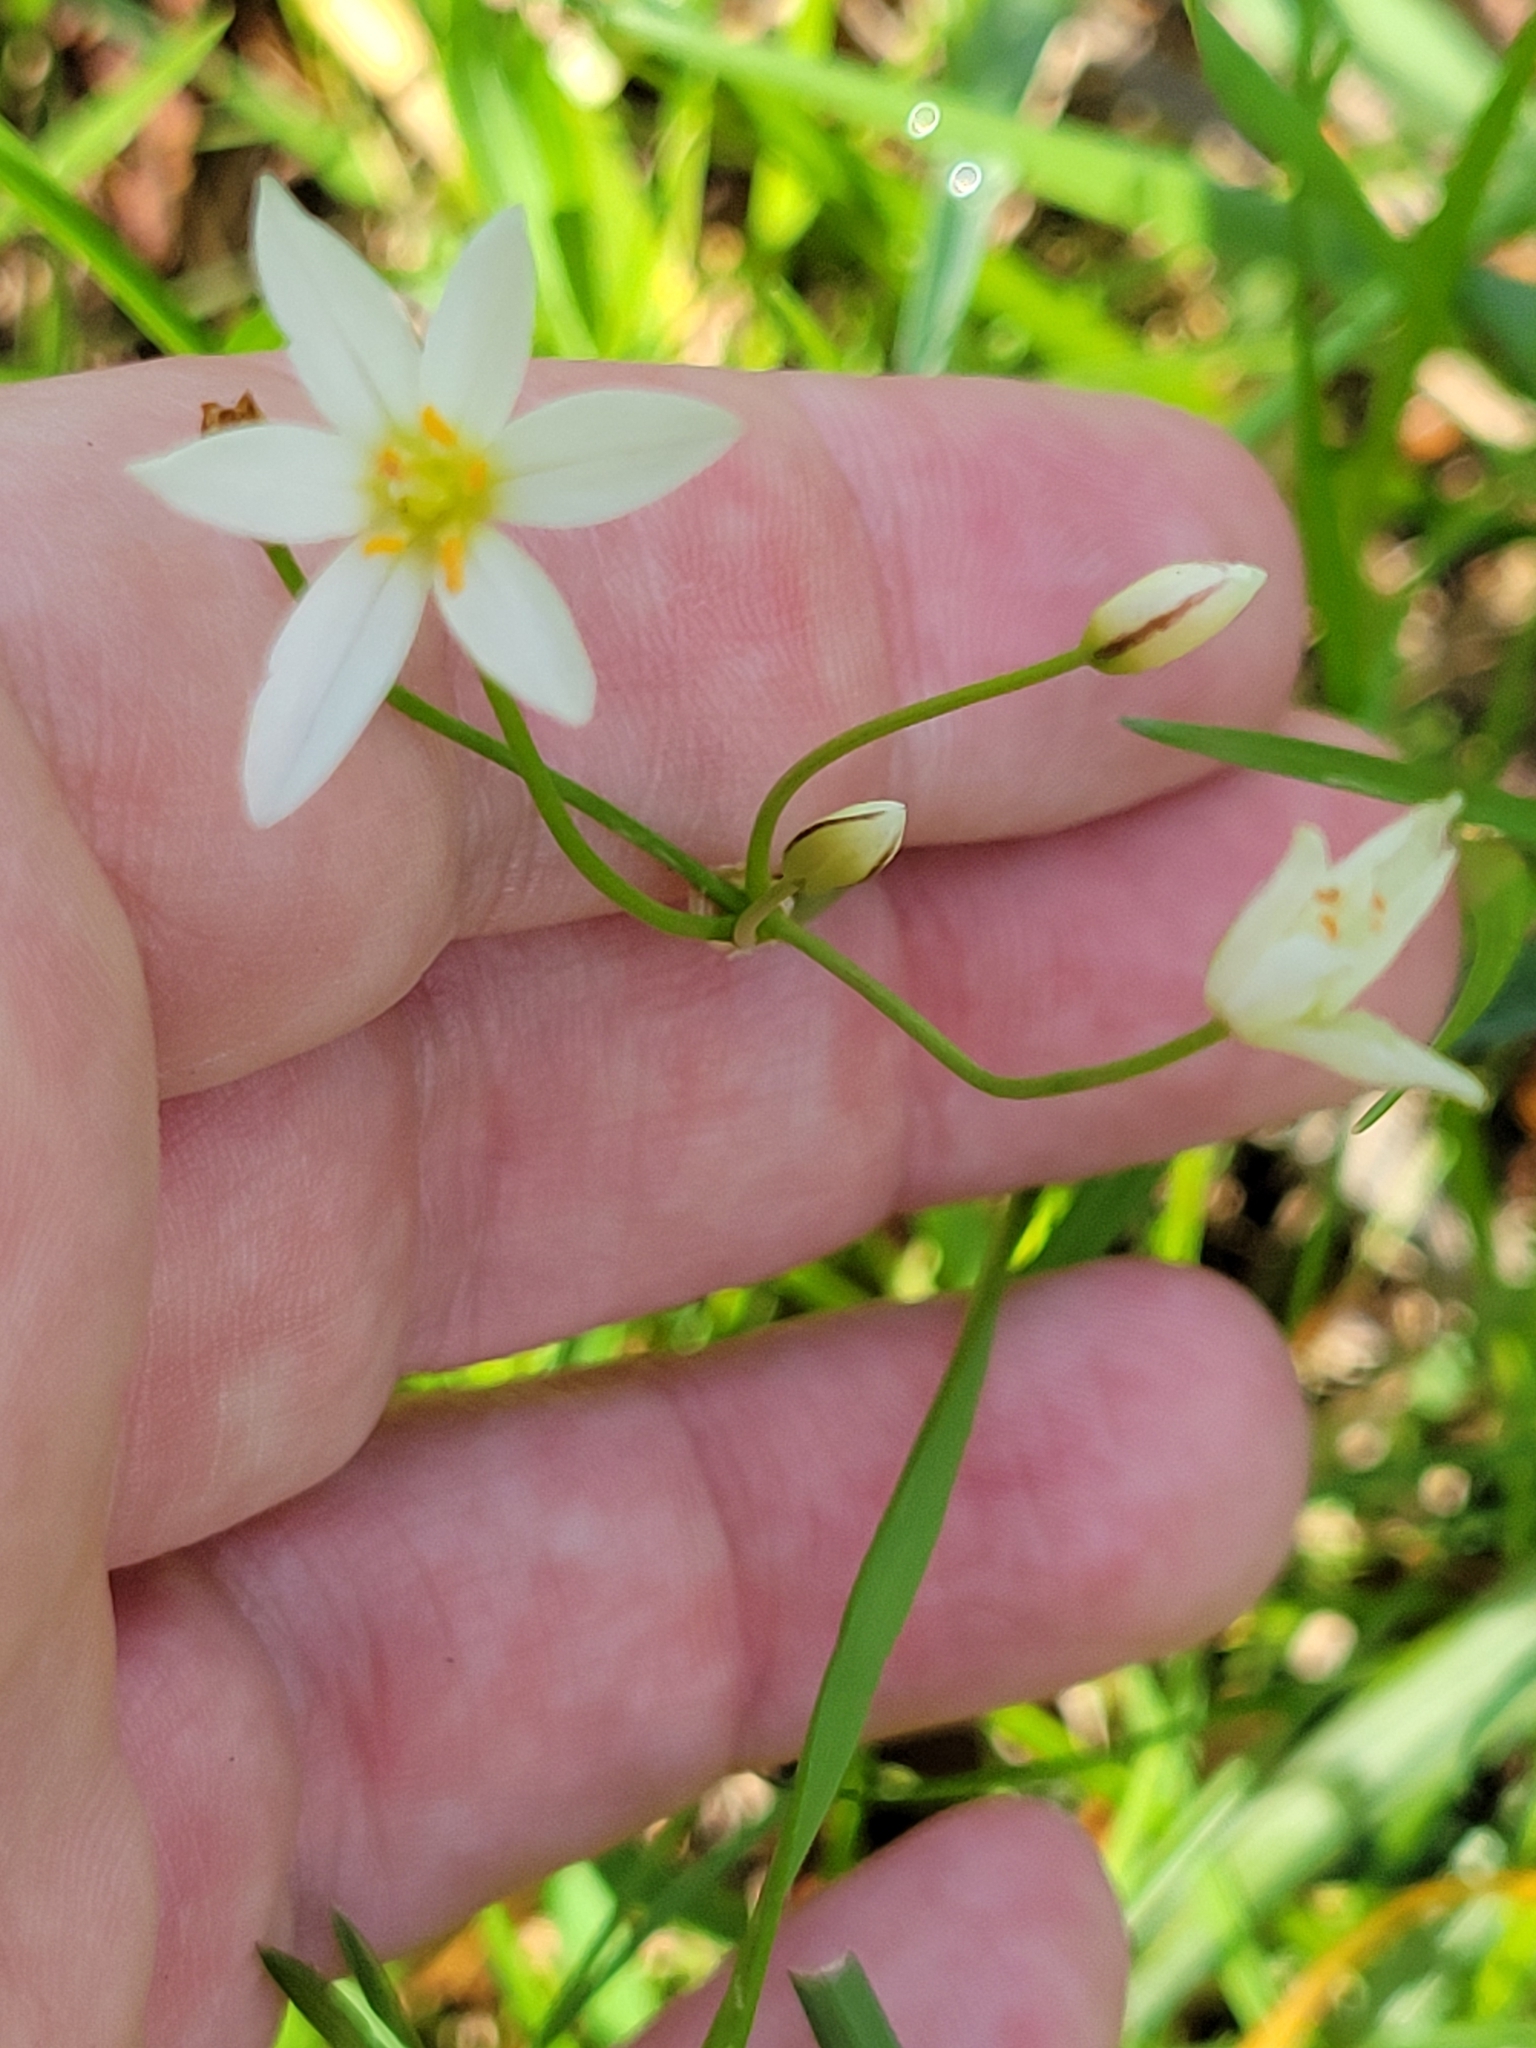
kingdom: Plantae
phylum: Tracheophyta
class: Liliopsida
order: Asparagales
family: Amaryllidaceae
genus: Nothoscordum
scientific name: Nothoscordum bivalve
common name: Crow-poison
